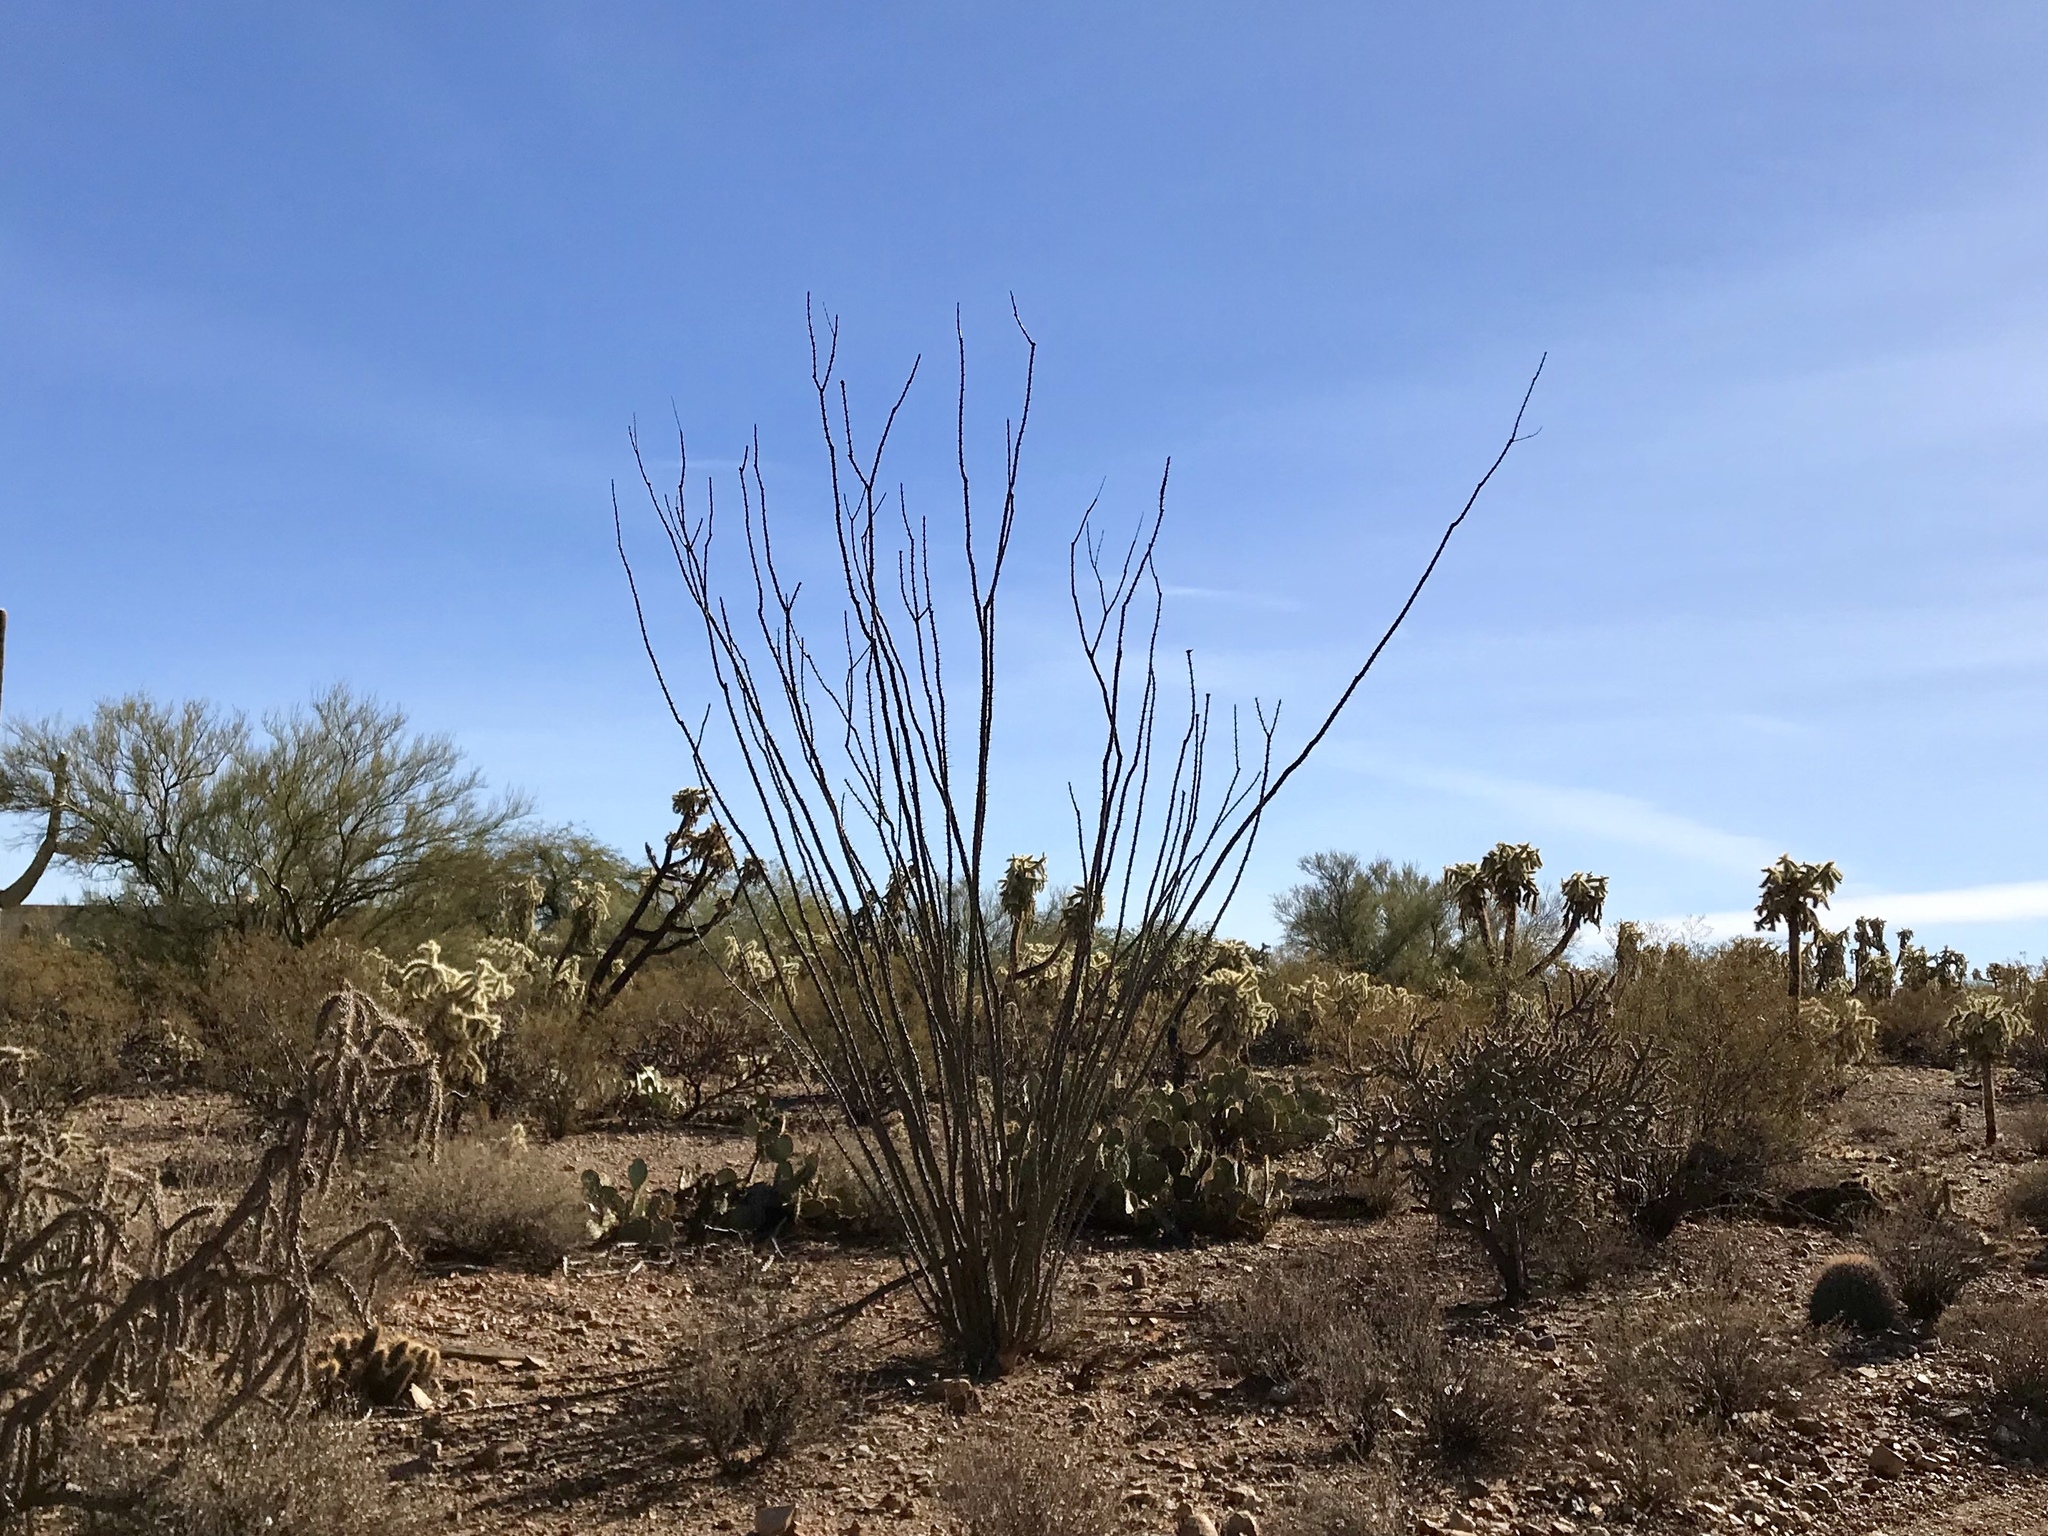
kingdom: Plantae
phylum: Tracheophyta
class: Magnoliopsida
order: Ericales
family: Fouquieriaceae
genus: Fouquieria
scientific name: Fouquieria splendens
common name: Vine-cactus
